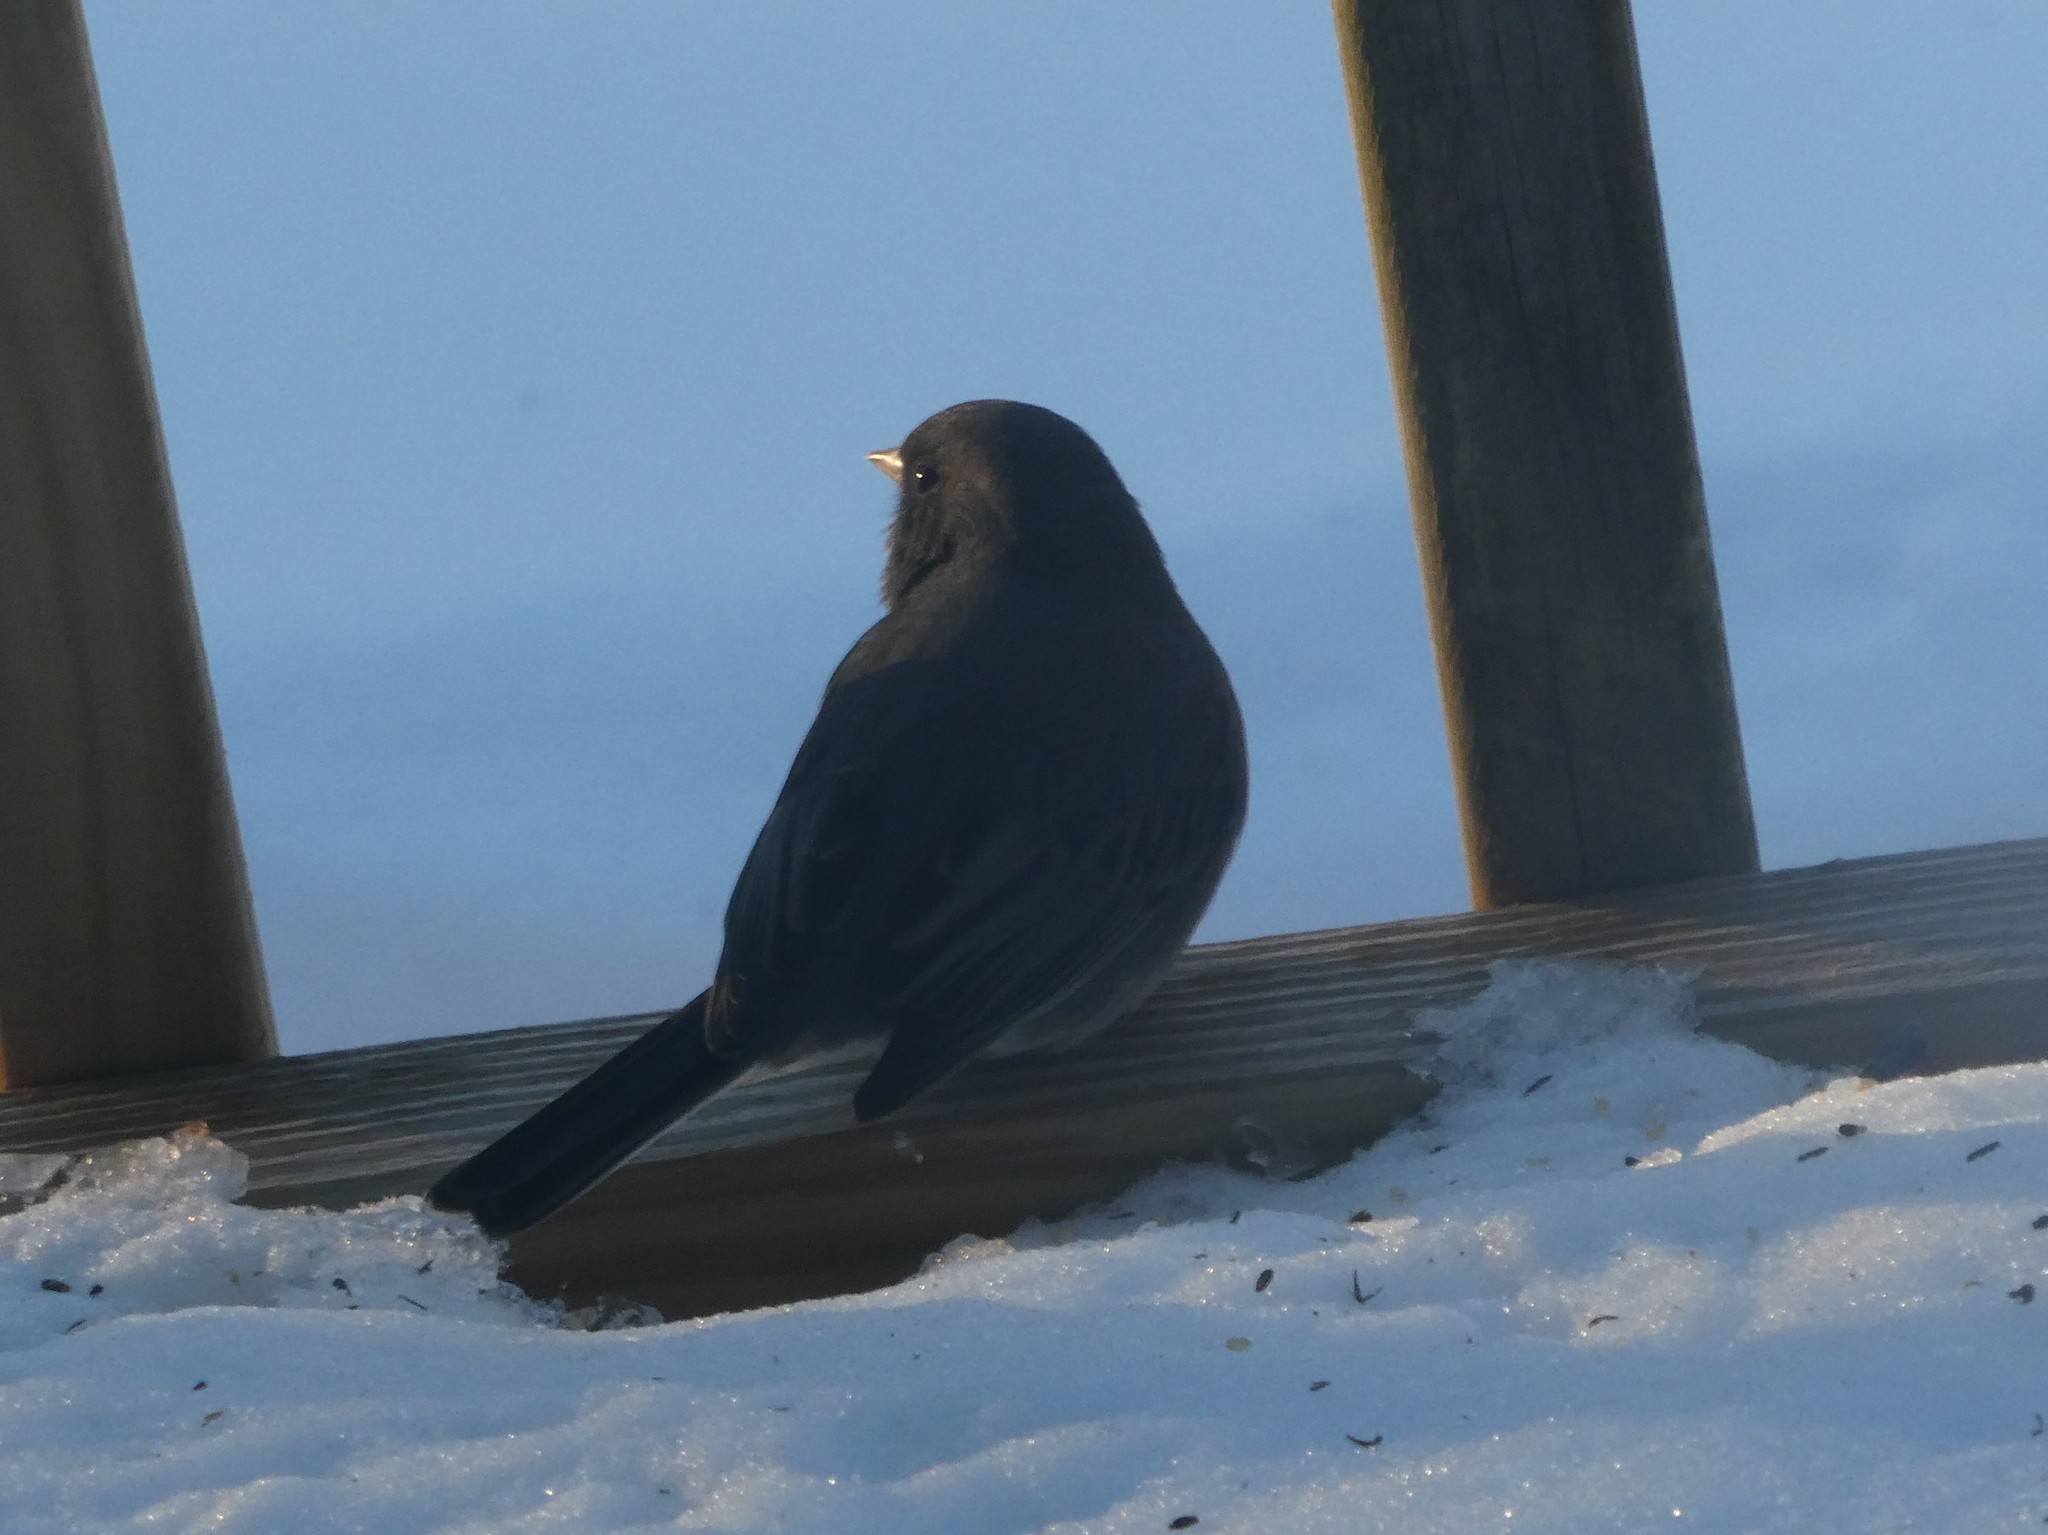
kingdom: Animalia
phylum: Chordata
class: Aves
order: Passeriformes
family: Passerellidae
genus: Junco
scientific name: Junco hyemalis
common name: Dark-eyed junco
